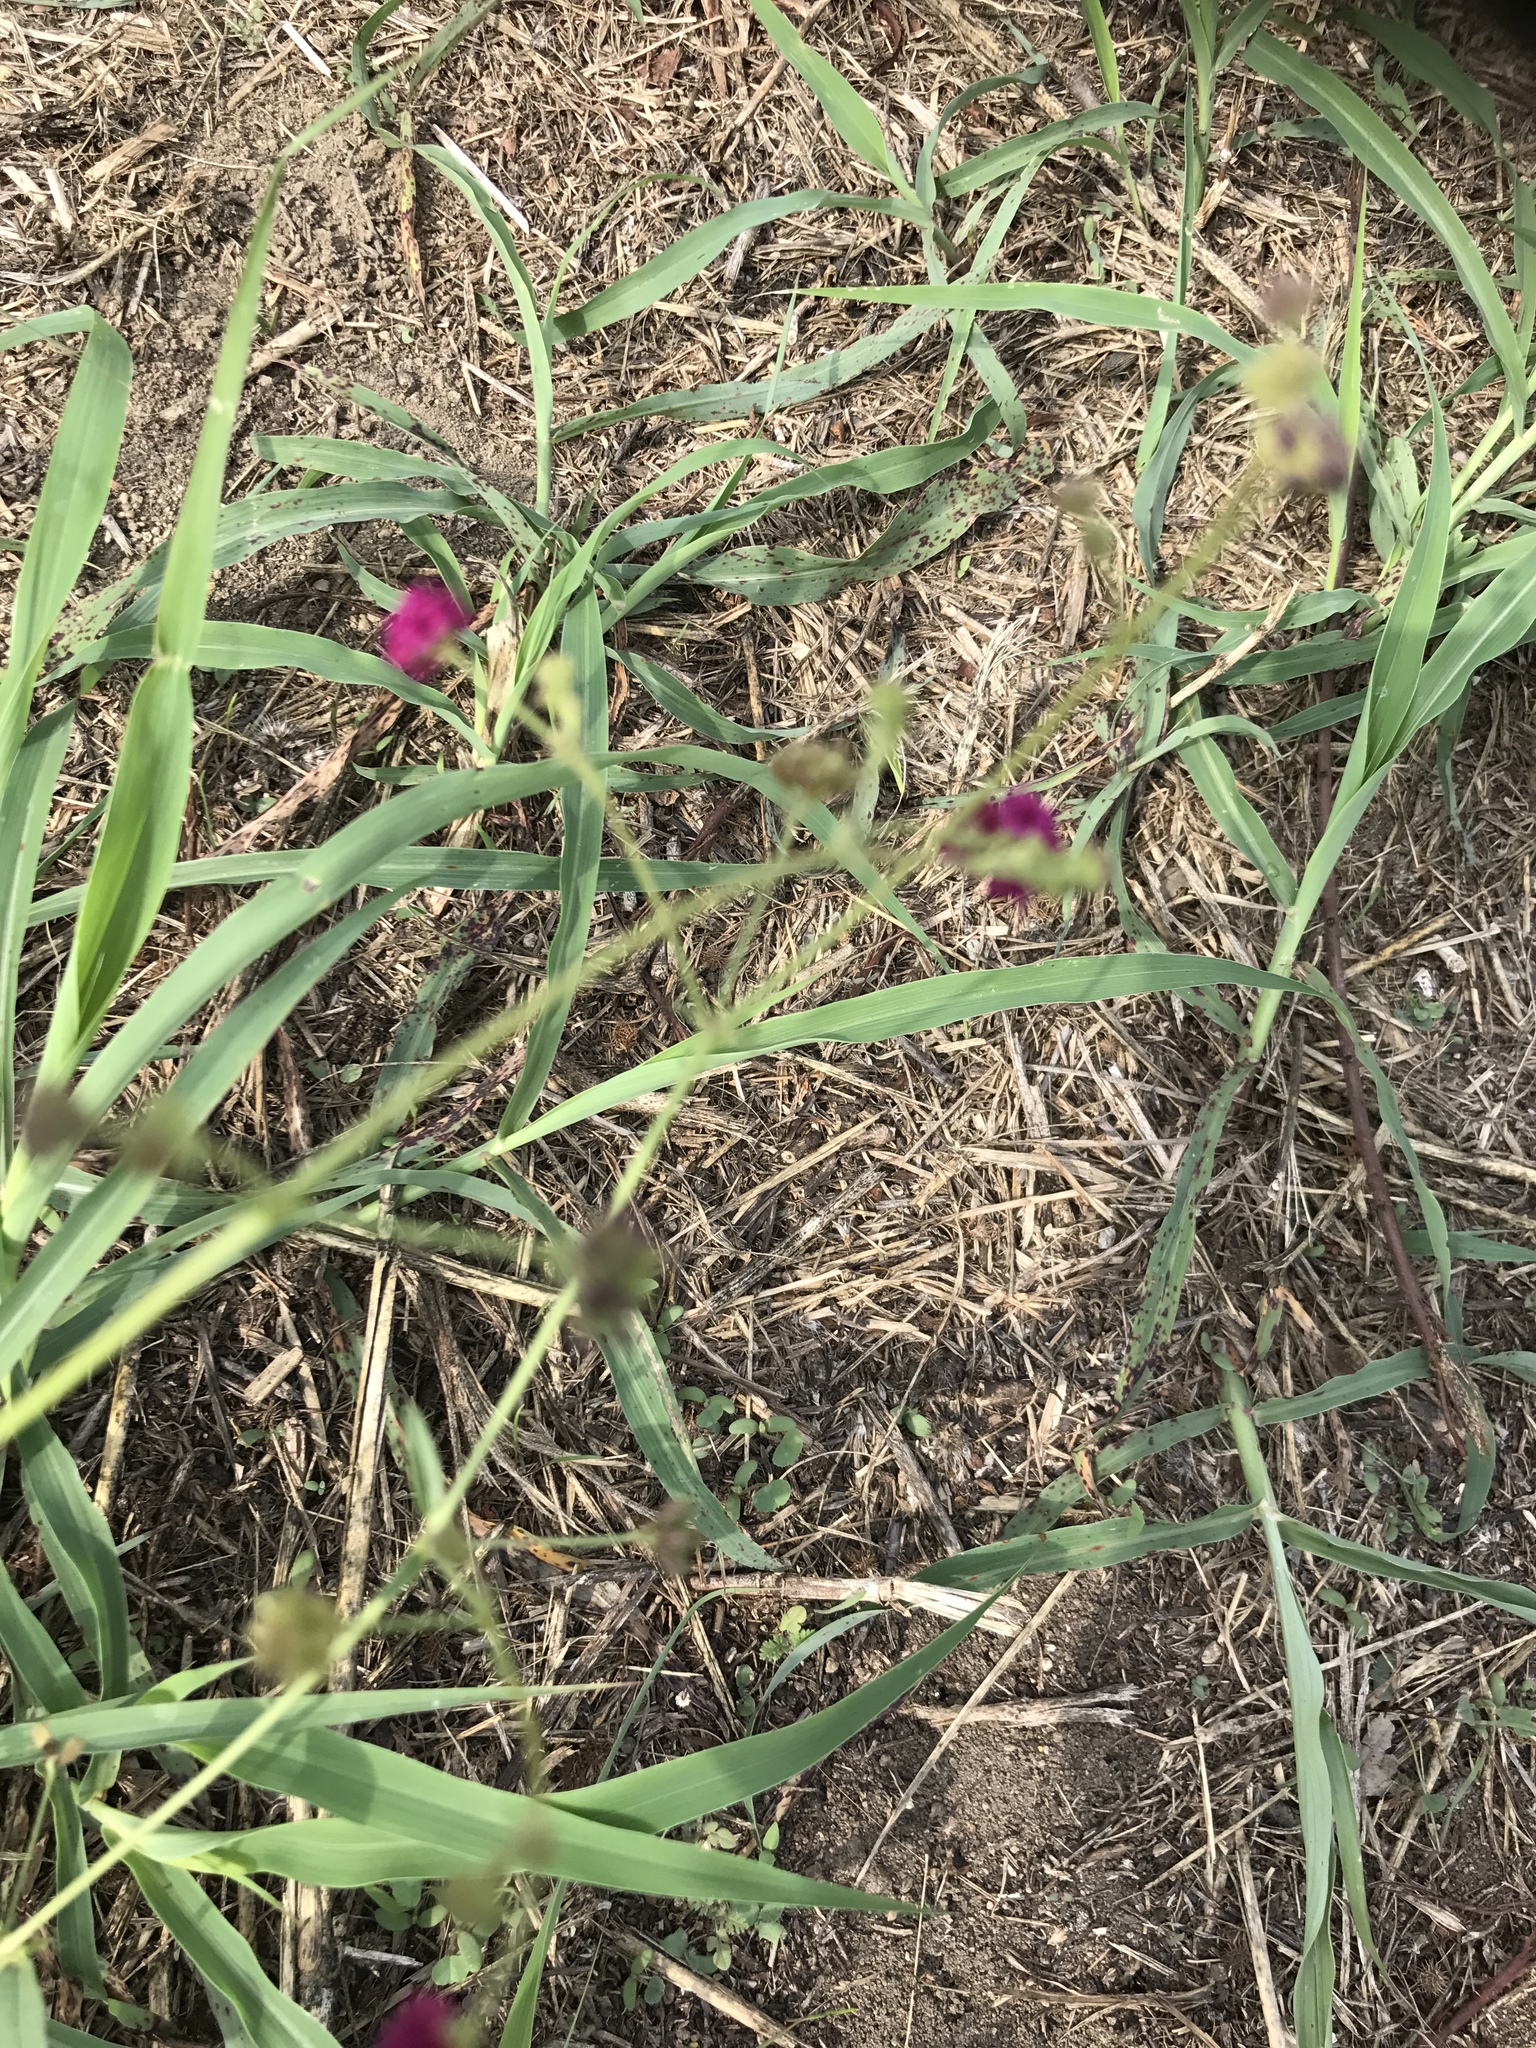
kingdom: Plantae
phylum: Tracheophyta
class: Magnoliopsida
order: Caryophyllales
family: Nyctaginaceae
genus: Boerhavia
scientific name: Boerhavia coccinea
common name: Scarlet spiderling
